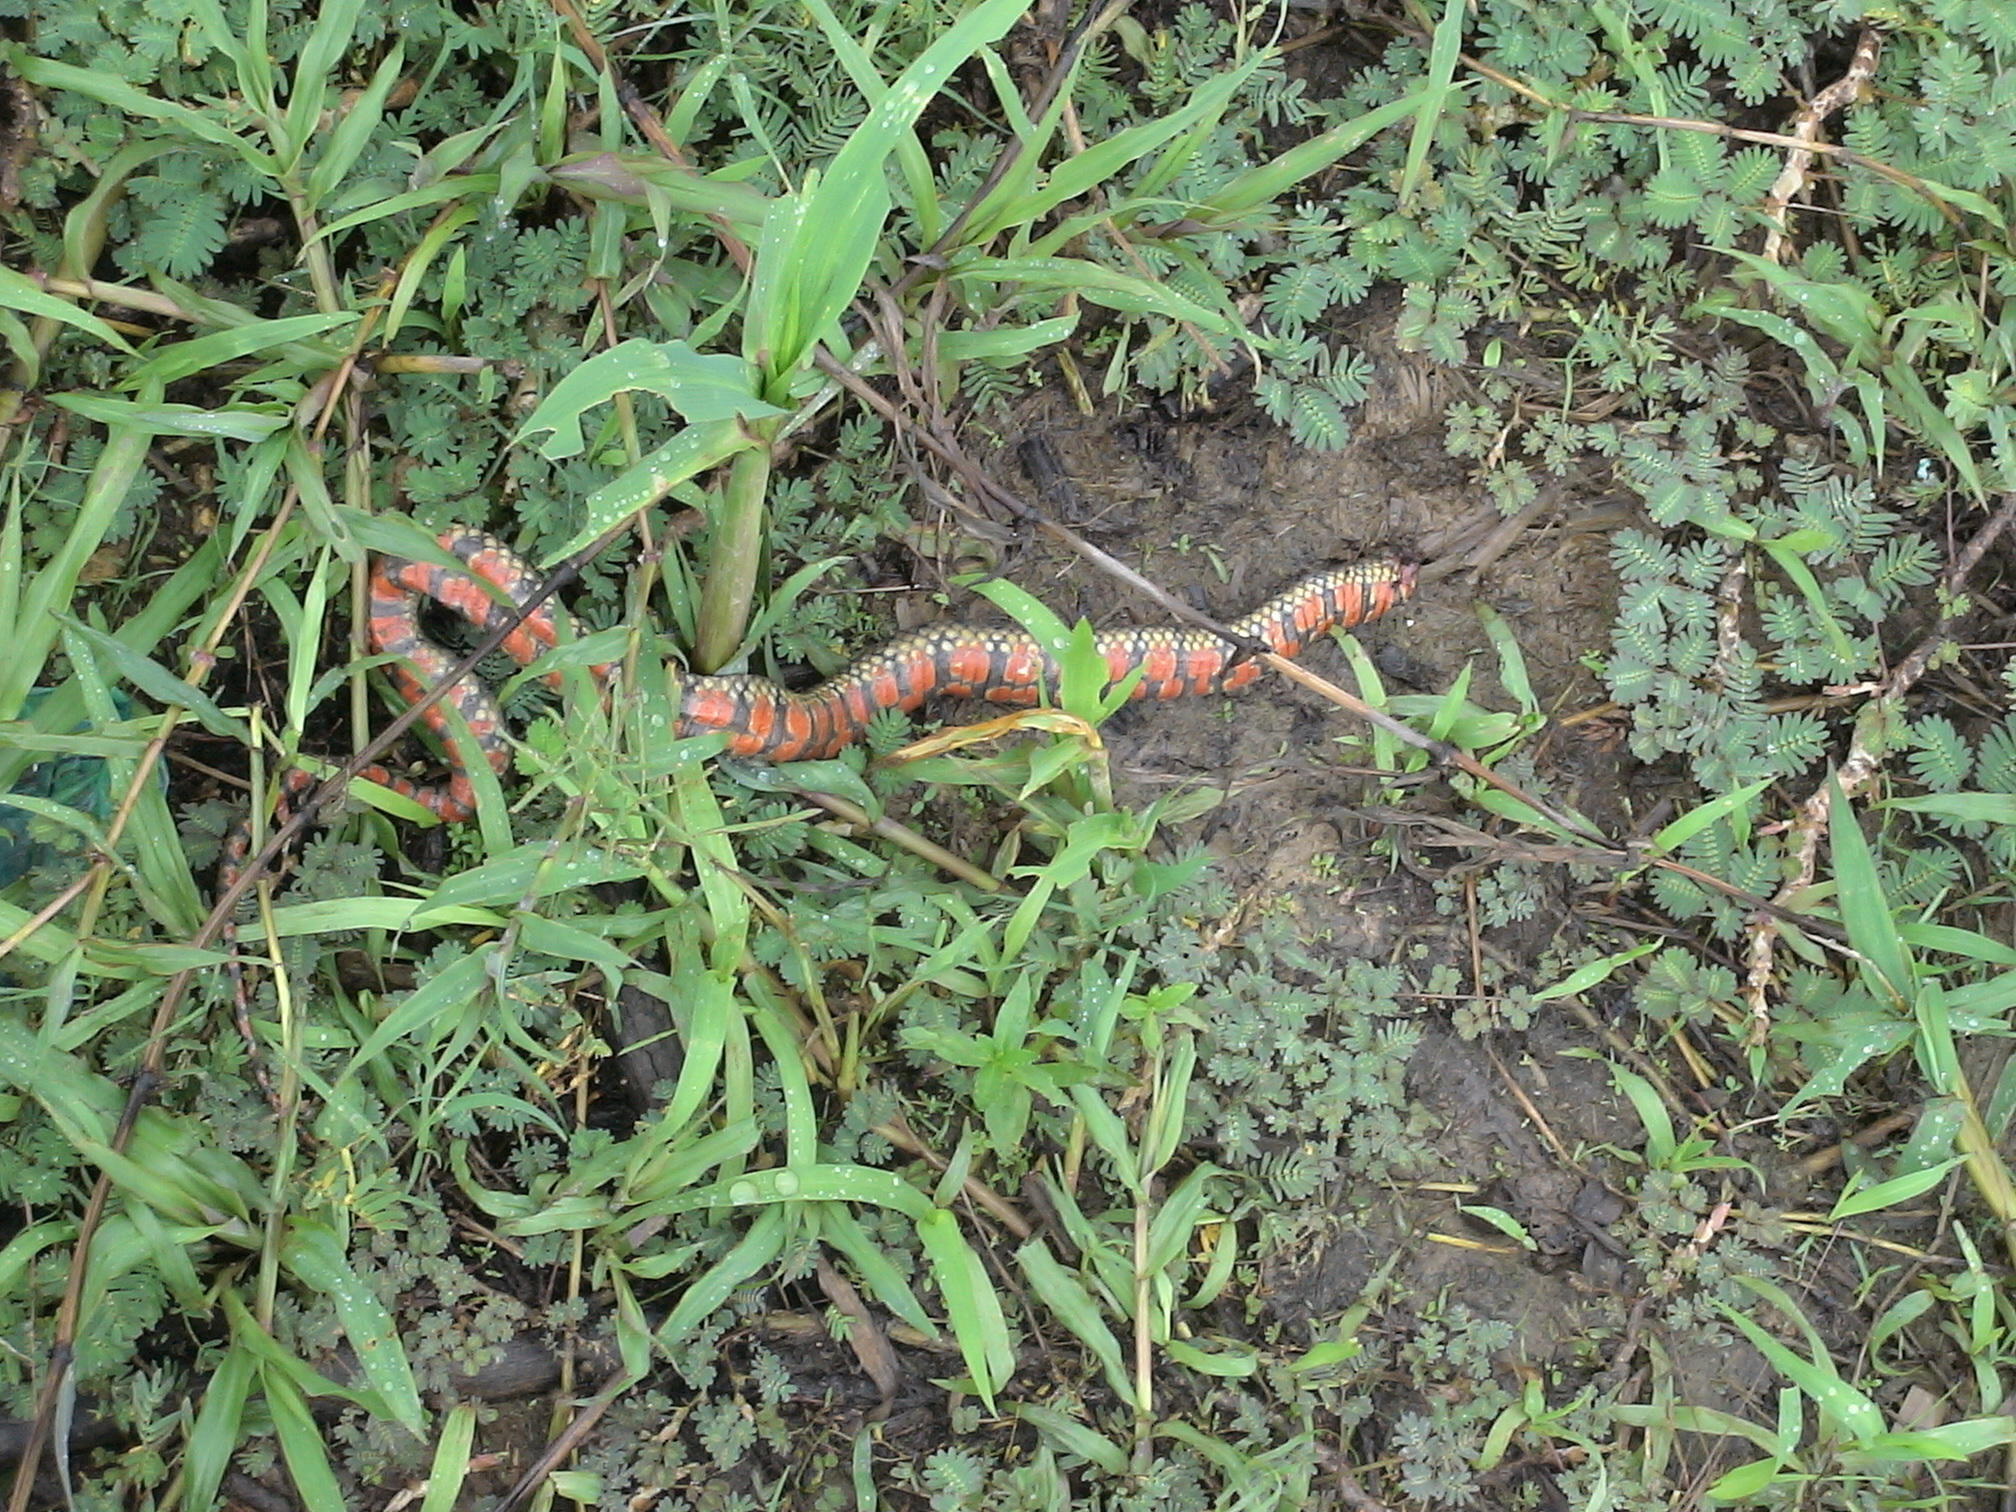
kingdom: Animalia
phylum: Chordata
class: Squamata
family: Colubridae
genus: Helicops
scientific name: Helicops leopardinus
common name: Leopard keelback
